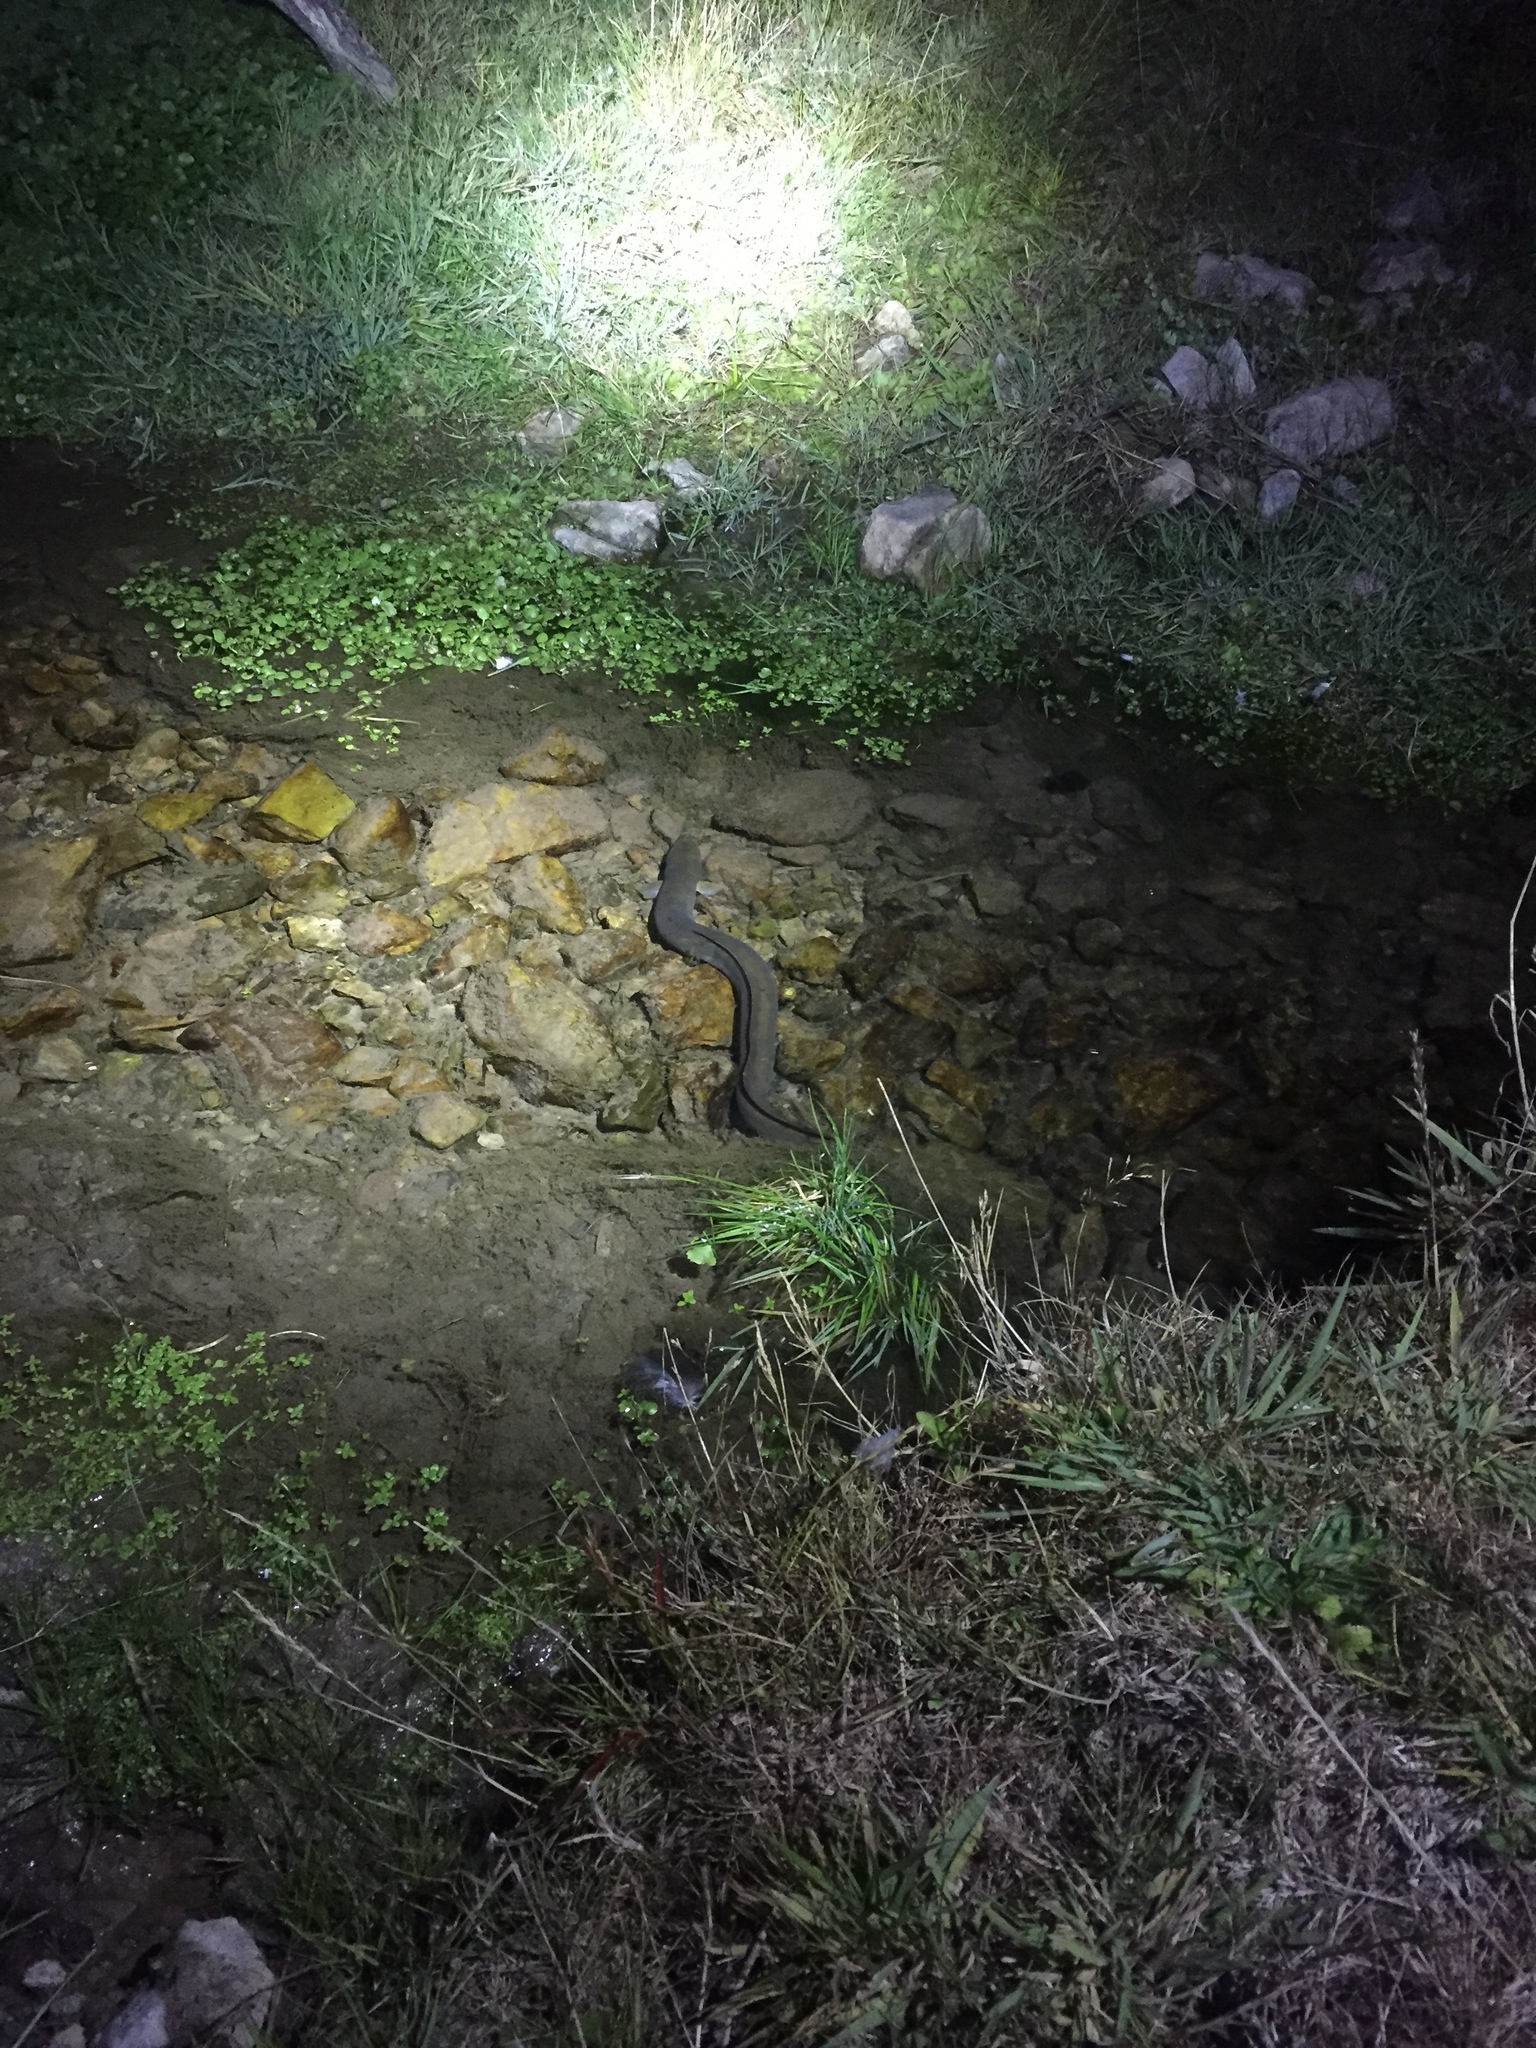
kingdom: Animalia
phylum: Chordata
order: Anguilliformes
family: Anguillidae
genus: Anguilla
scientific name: Anguilla dieffenbachii
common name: New zealand longfin eel
